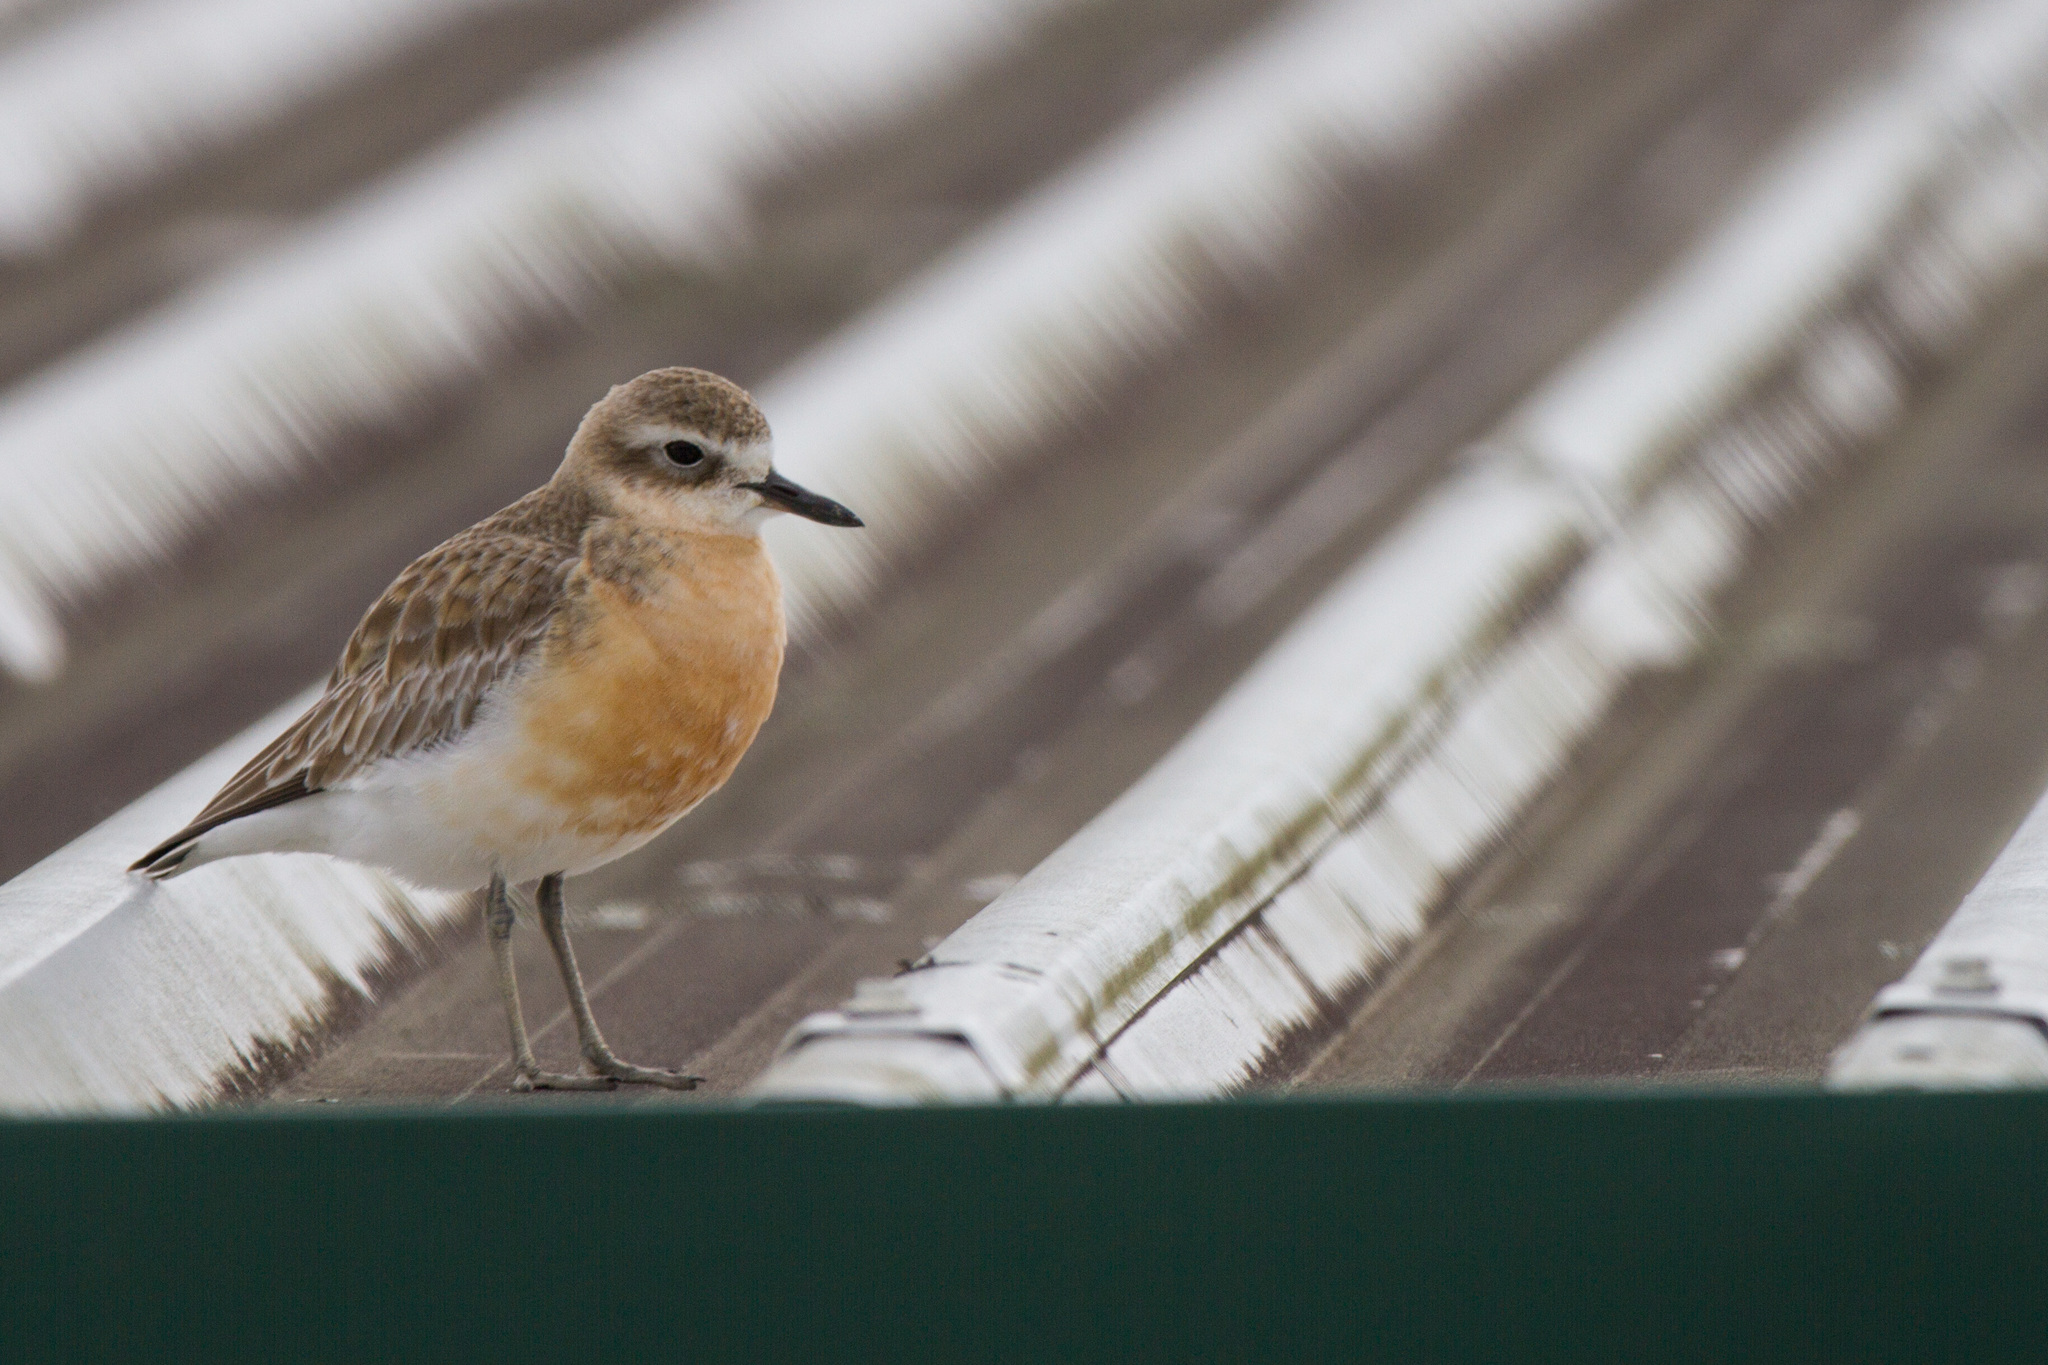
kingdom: Animalia
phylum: Chordata
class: Aves
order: Charadriiformes
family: Charadriidae
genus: Anarhynchus
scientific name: Anarhynchus
